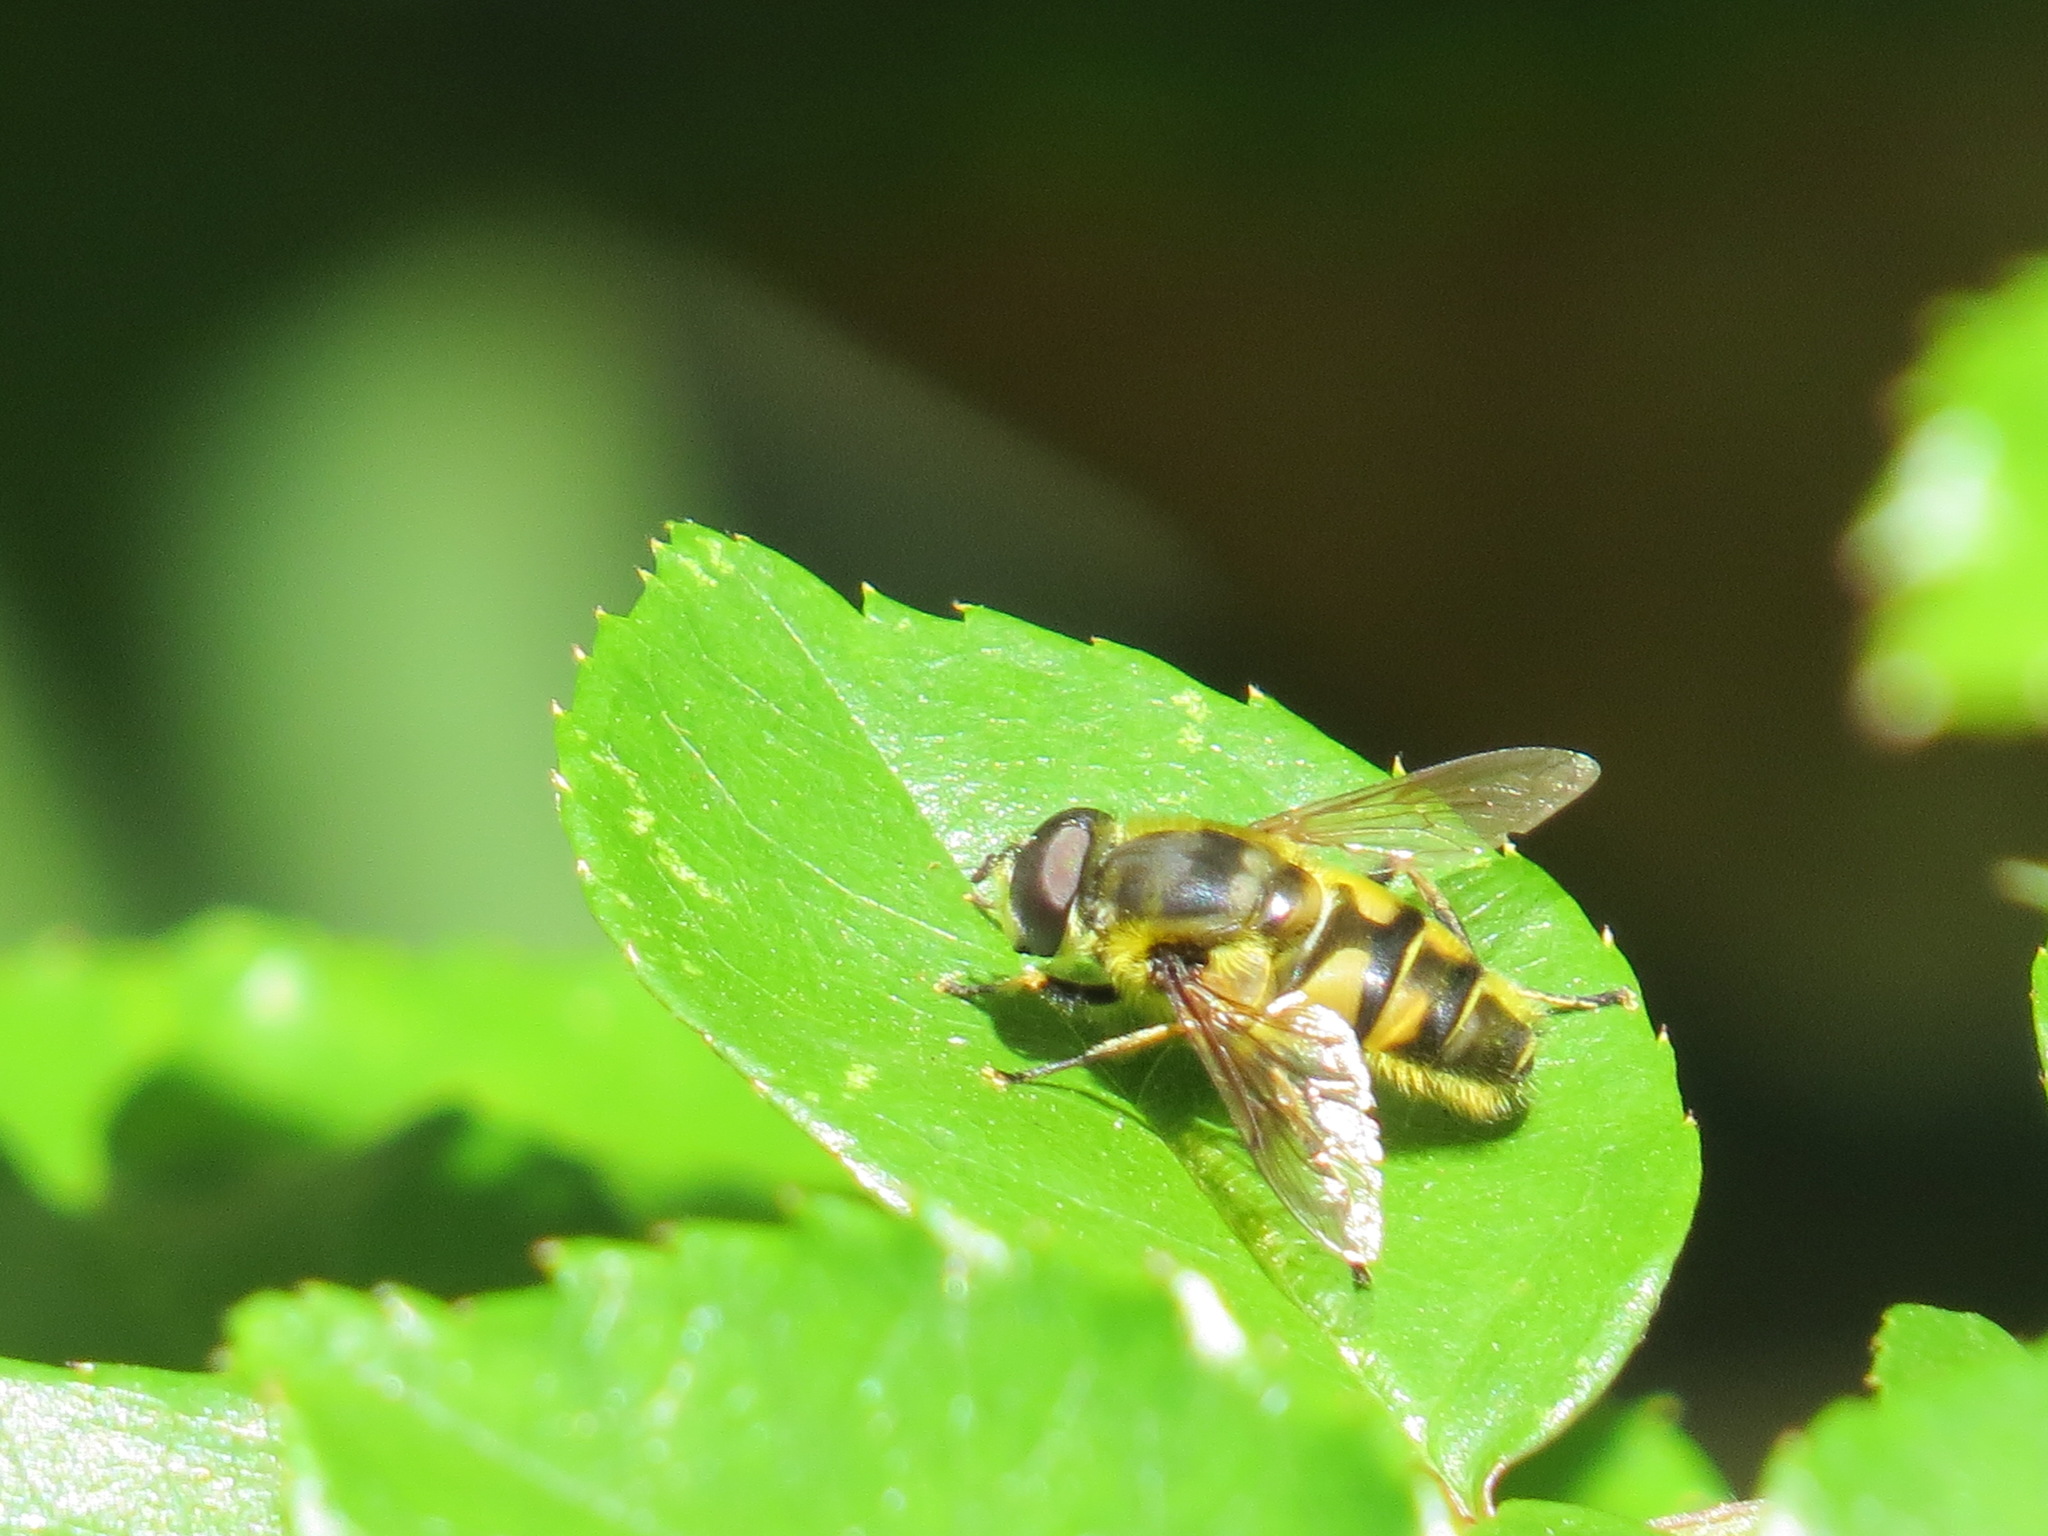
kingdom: Animalia
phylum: Arthropoda
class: Insecta
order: Diptera
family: Syrphidae
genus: Myathropa
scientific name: Myathropa florea
